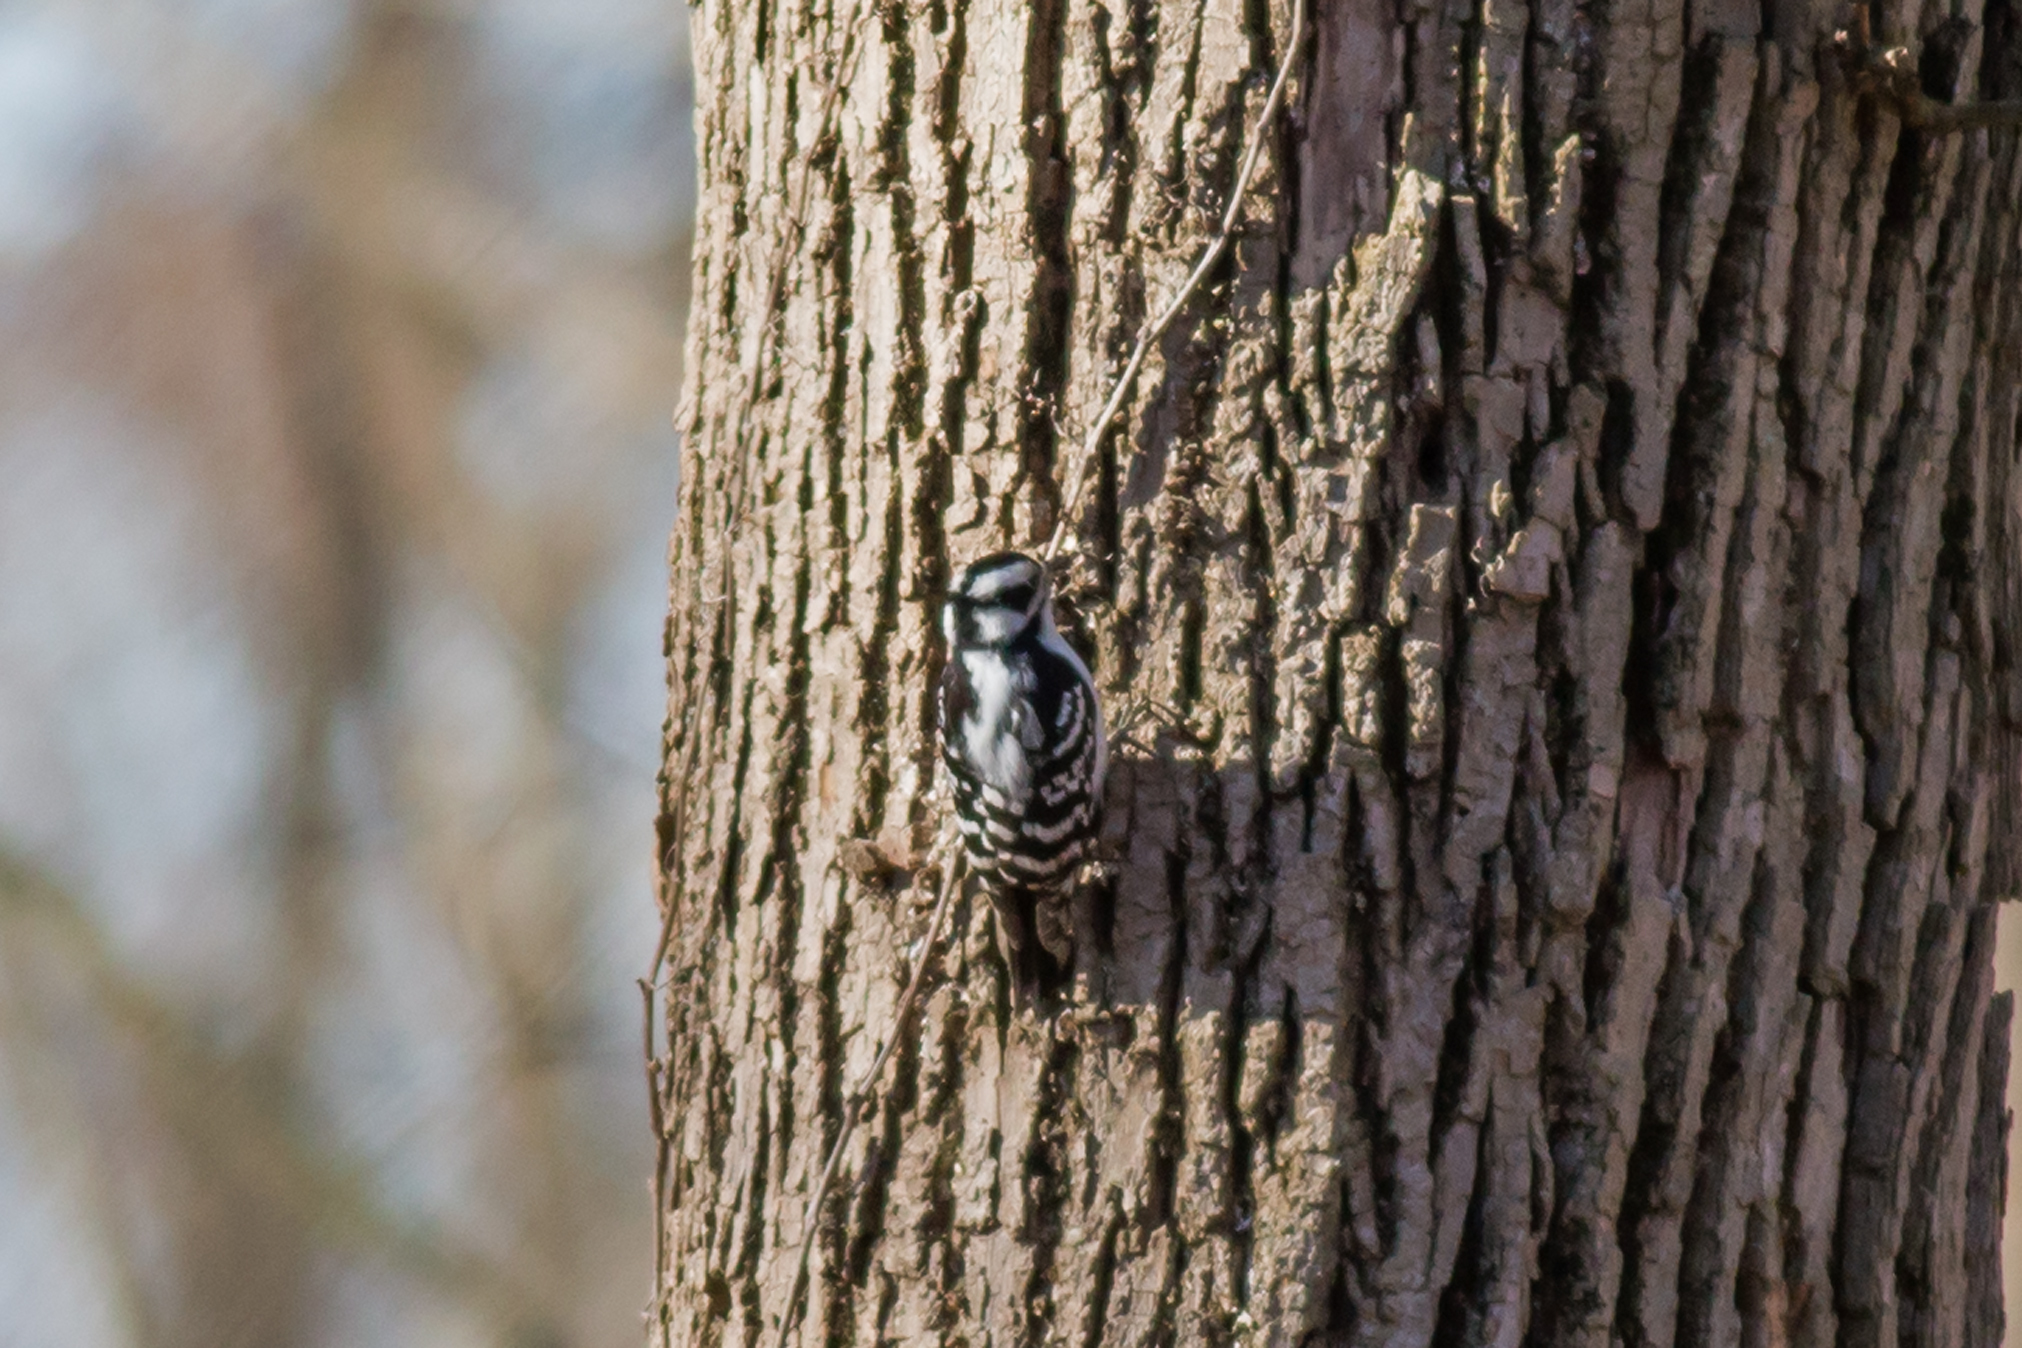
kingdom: Animalia
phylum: Chordata
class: Aves
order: Piciformes
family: Picidae
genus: Dryobates
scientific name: Dryobates pubescens
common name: Downy woodpecker
